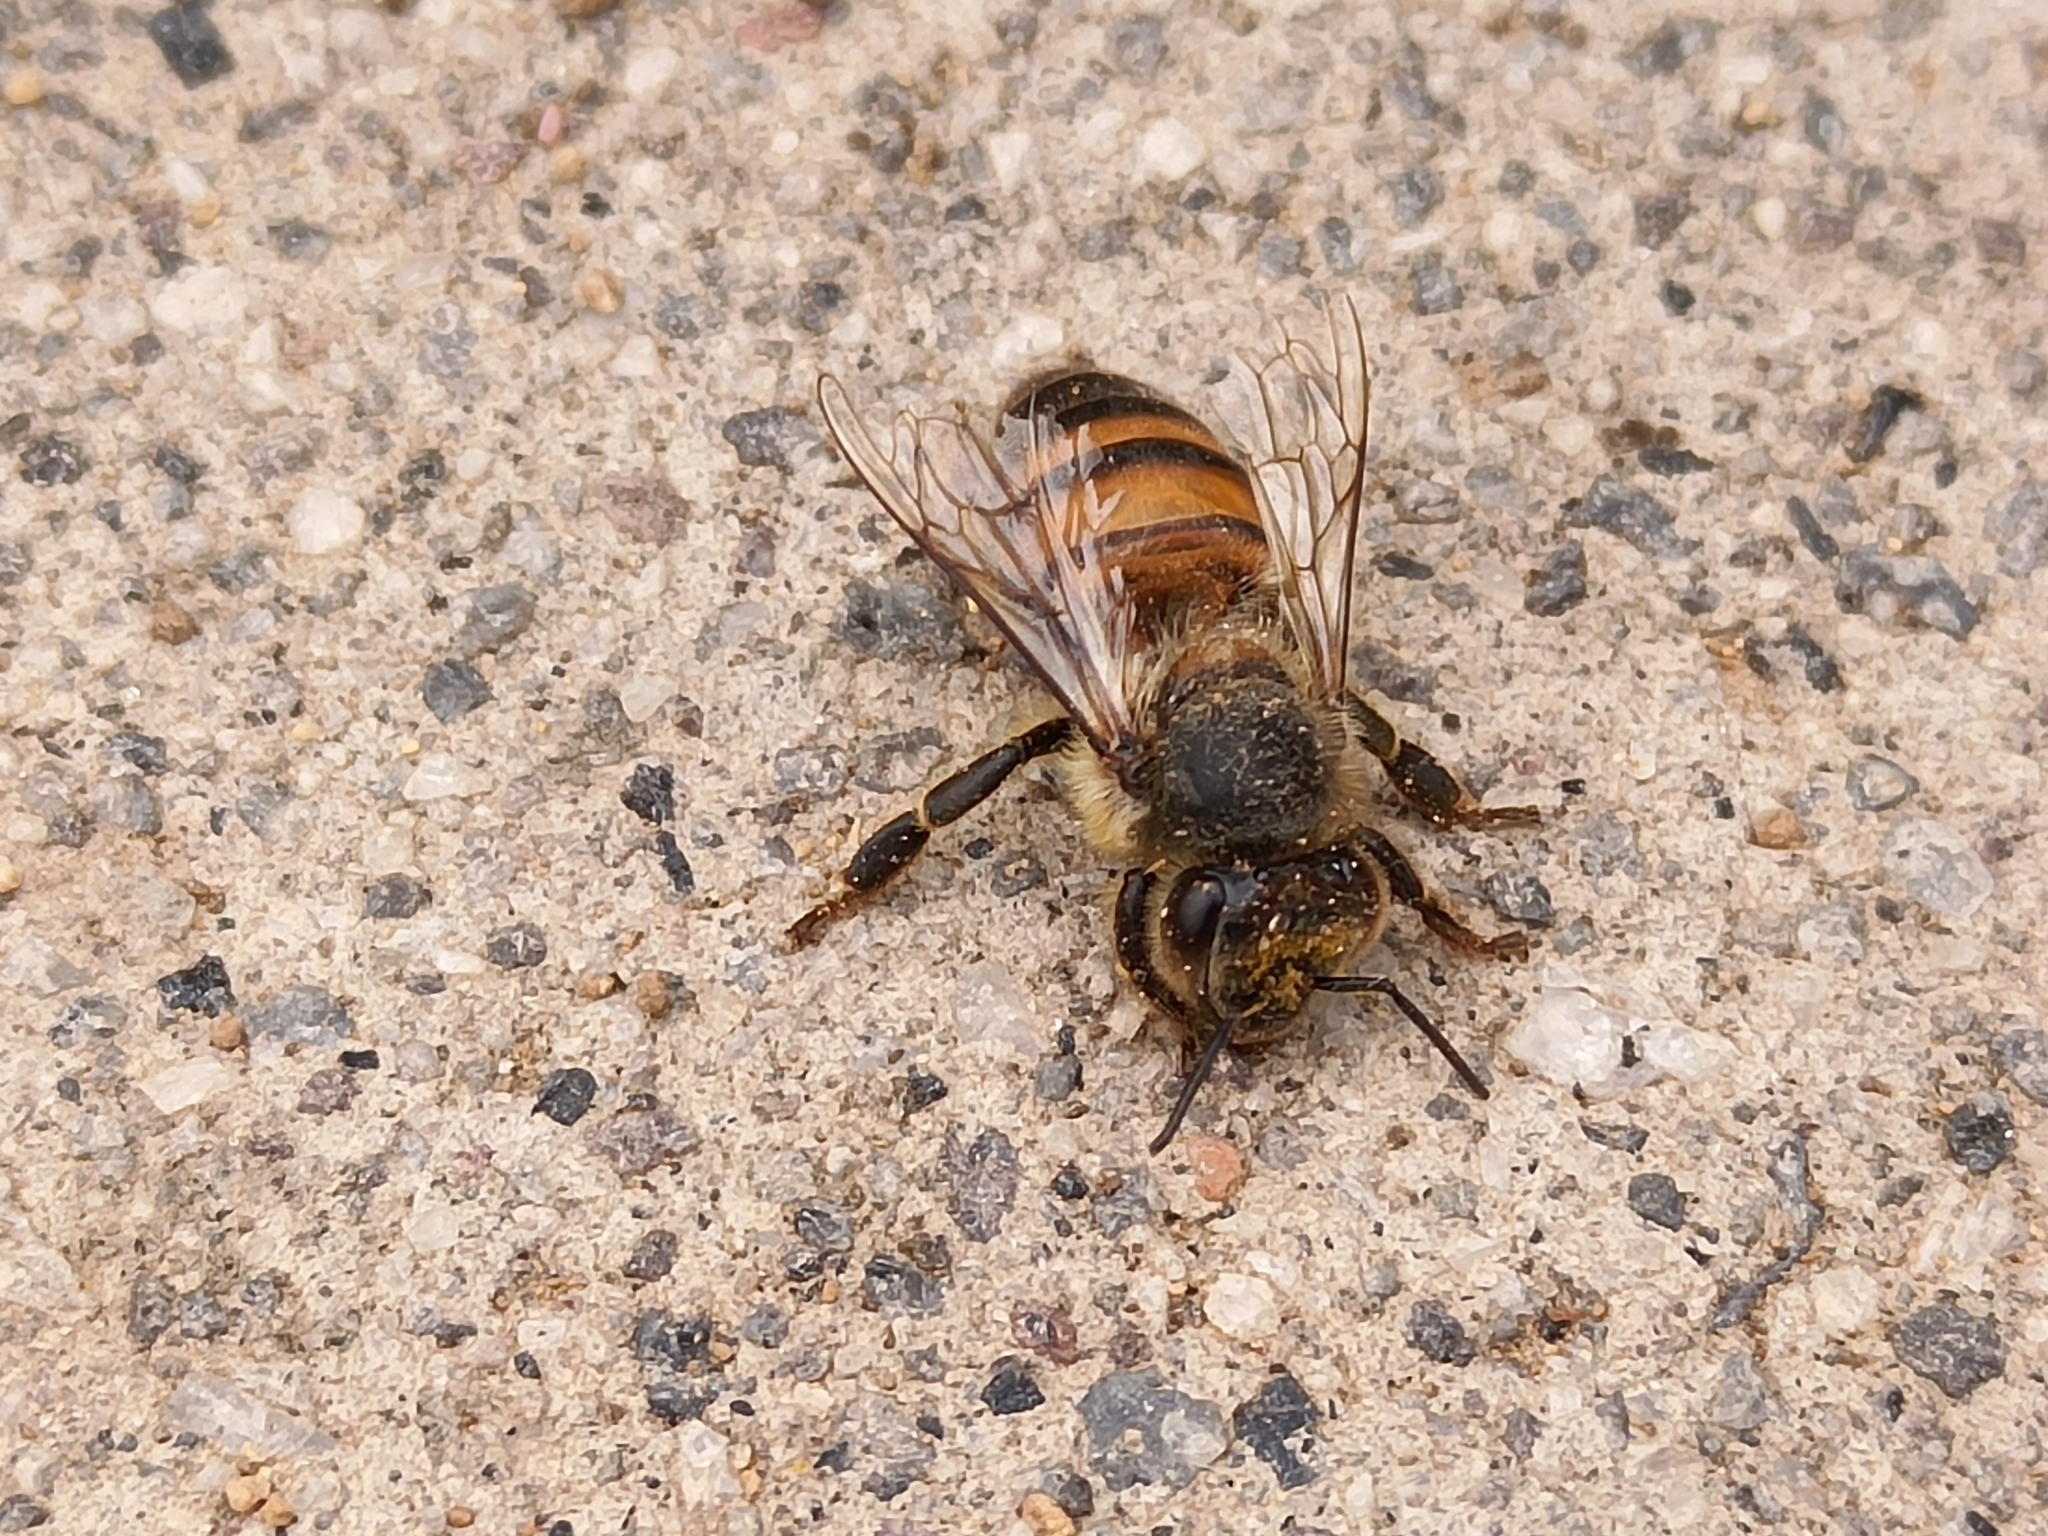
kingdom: Animalia
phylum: Arthropoda
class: Insecta
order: Hymenoptera
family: Apidae
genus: Apis
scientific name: Apis mellifera
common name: Honey bee
